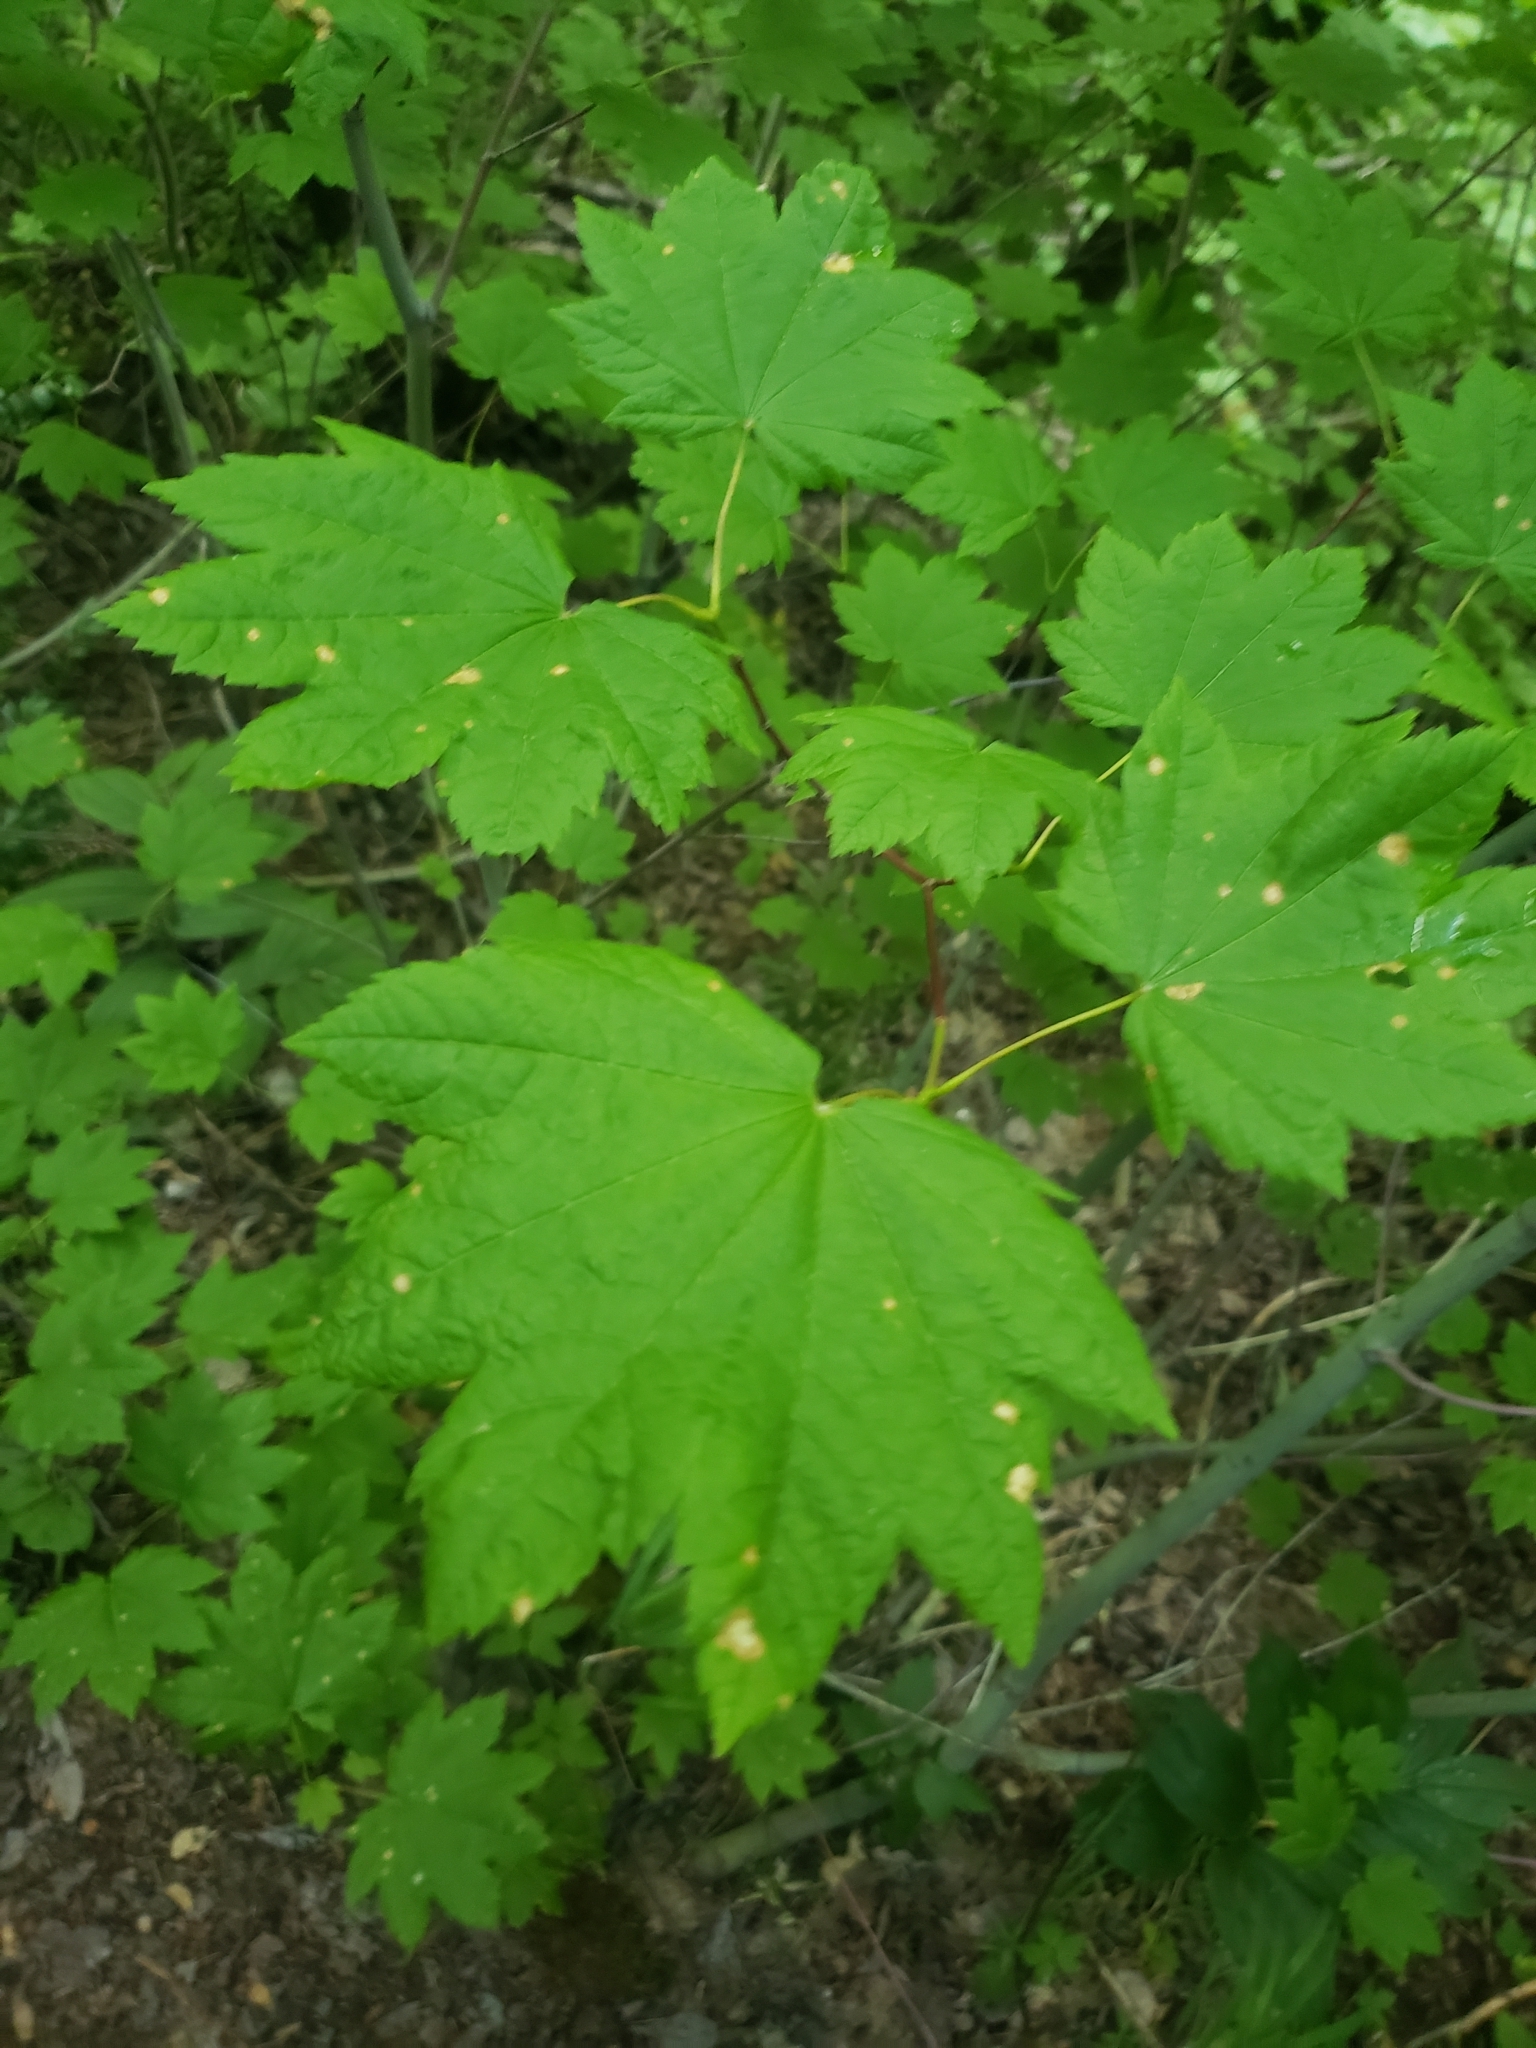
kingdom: Plantae
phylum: Tracheophyta
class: Magnoliopsida
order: Sapindales
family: Sapindaceae
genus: Acer
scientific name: Acer circinatum
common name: Vine maple
